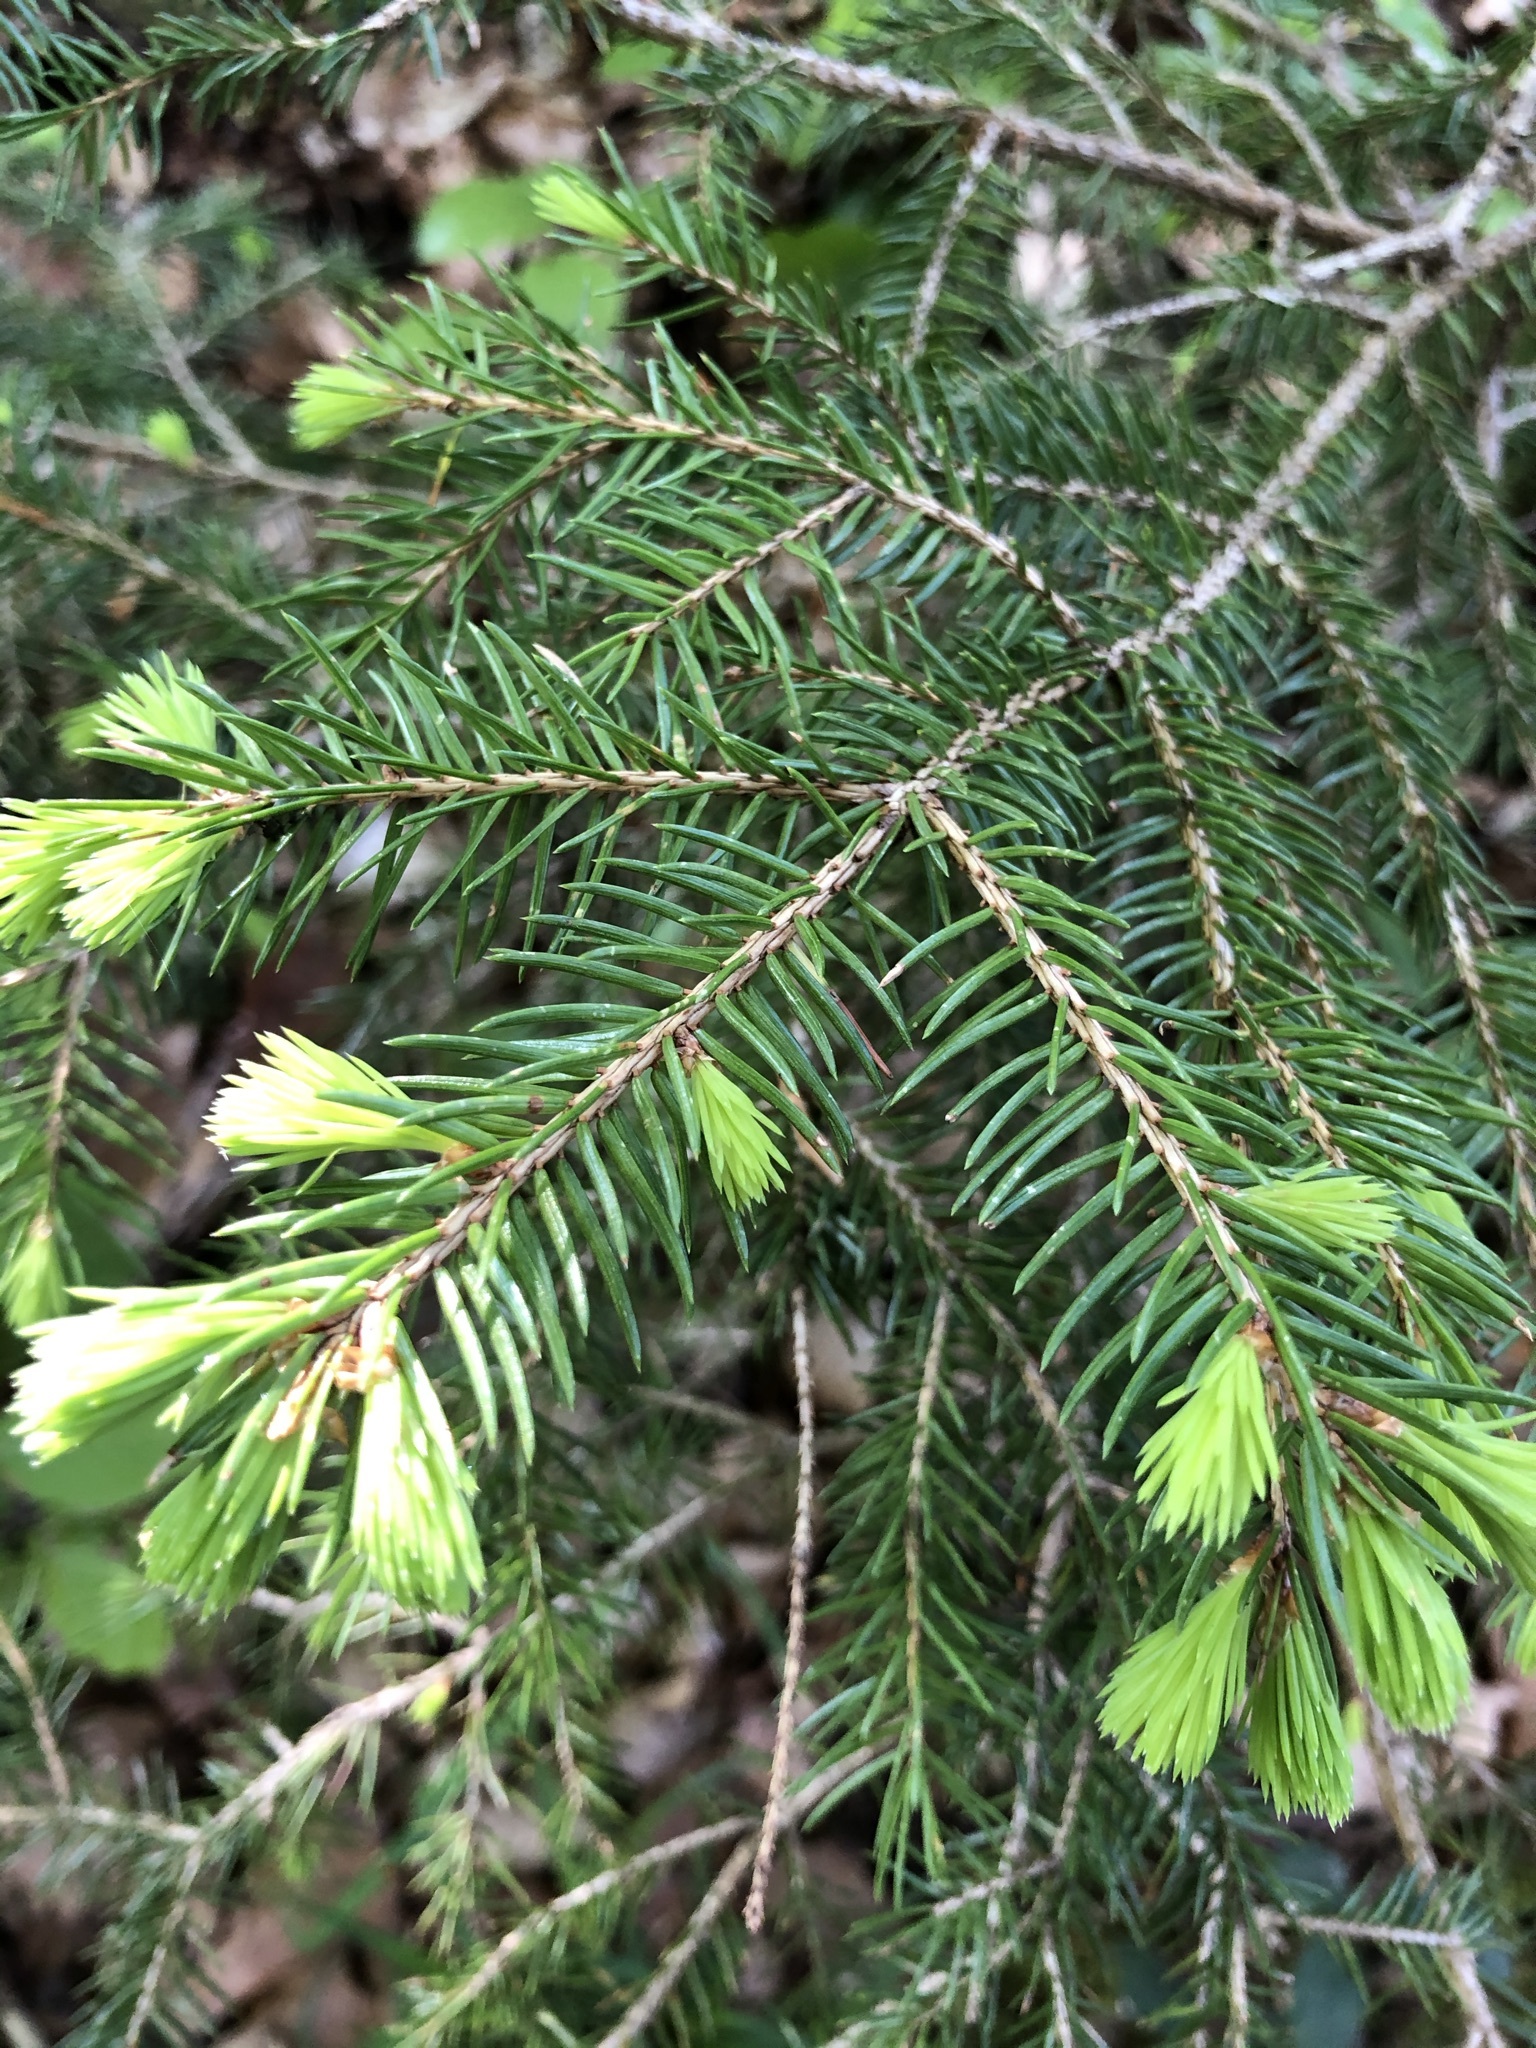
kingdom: Plantae
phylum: Tracheophyta
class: Pinopsida
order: Pinales
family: Pinaceae
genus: Picea
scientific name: Picea abies
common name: Norway spruce
